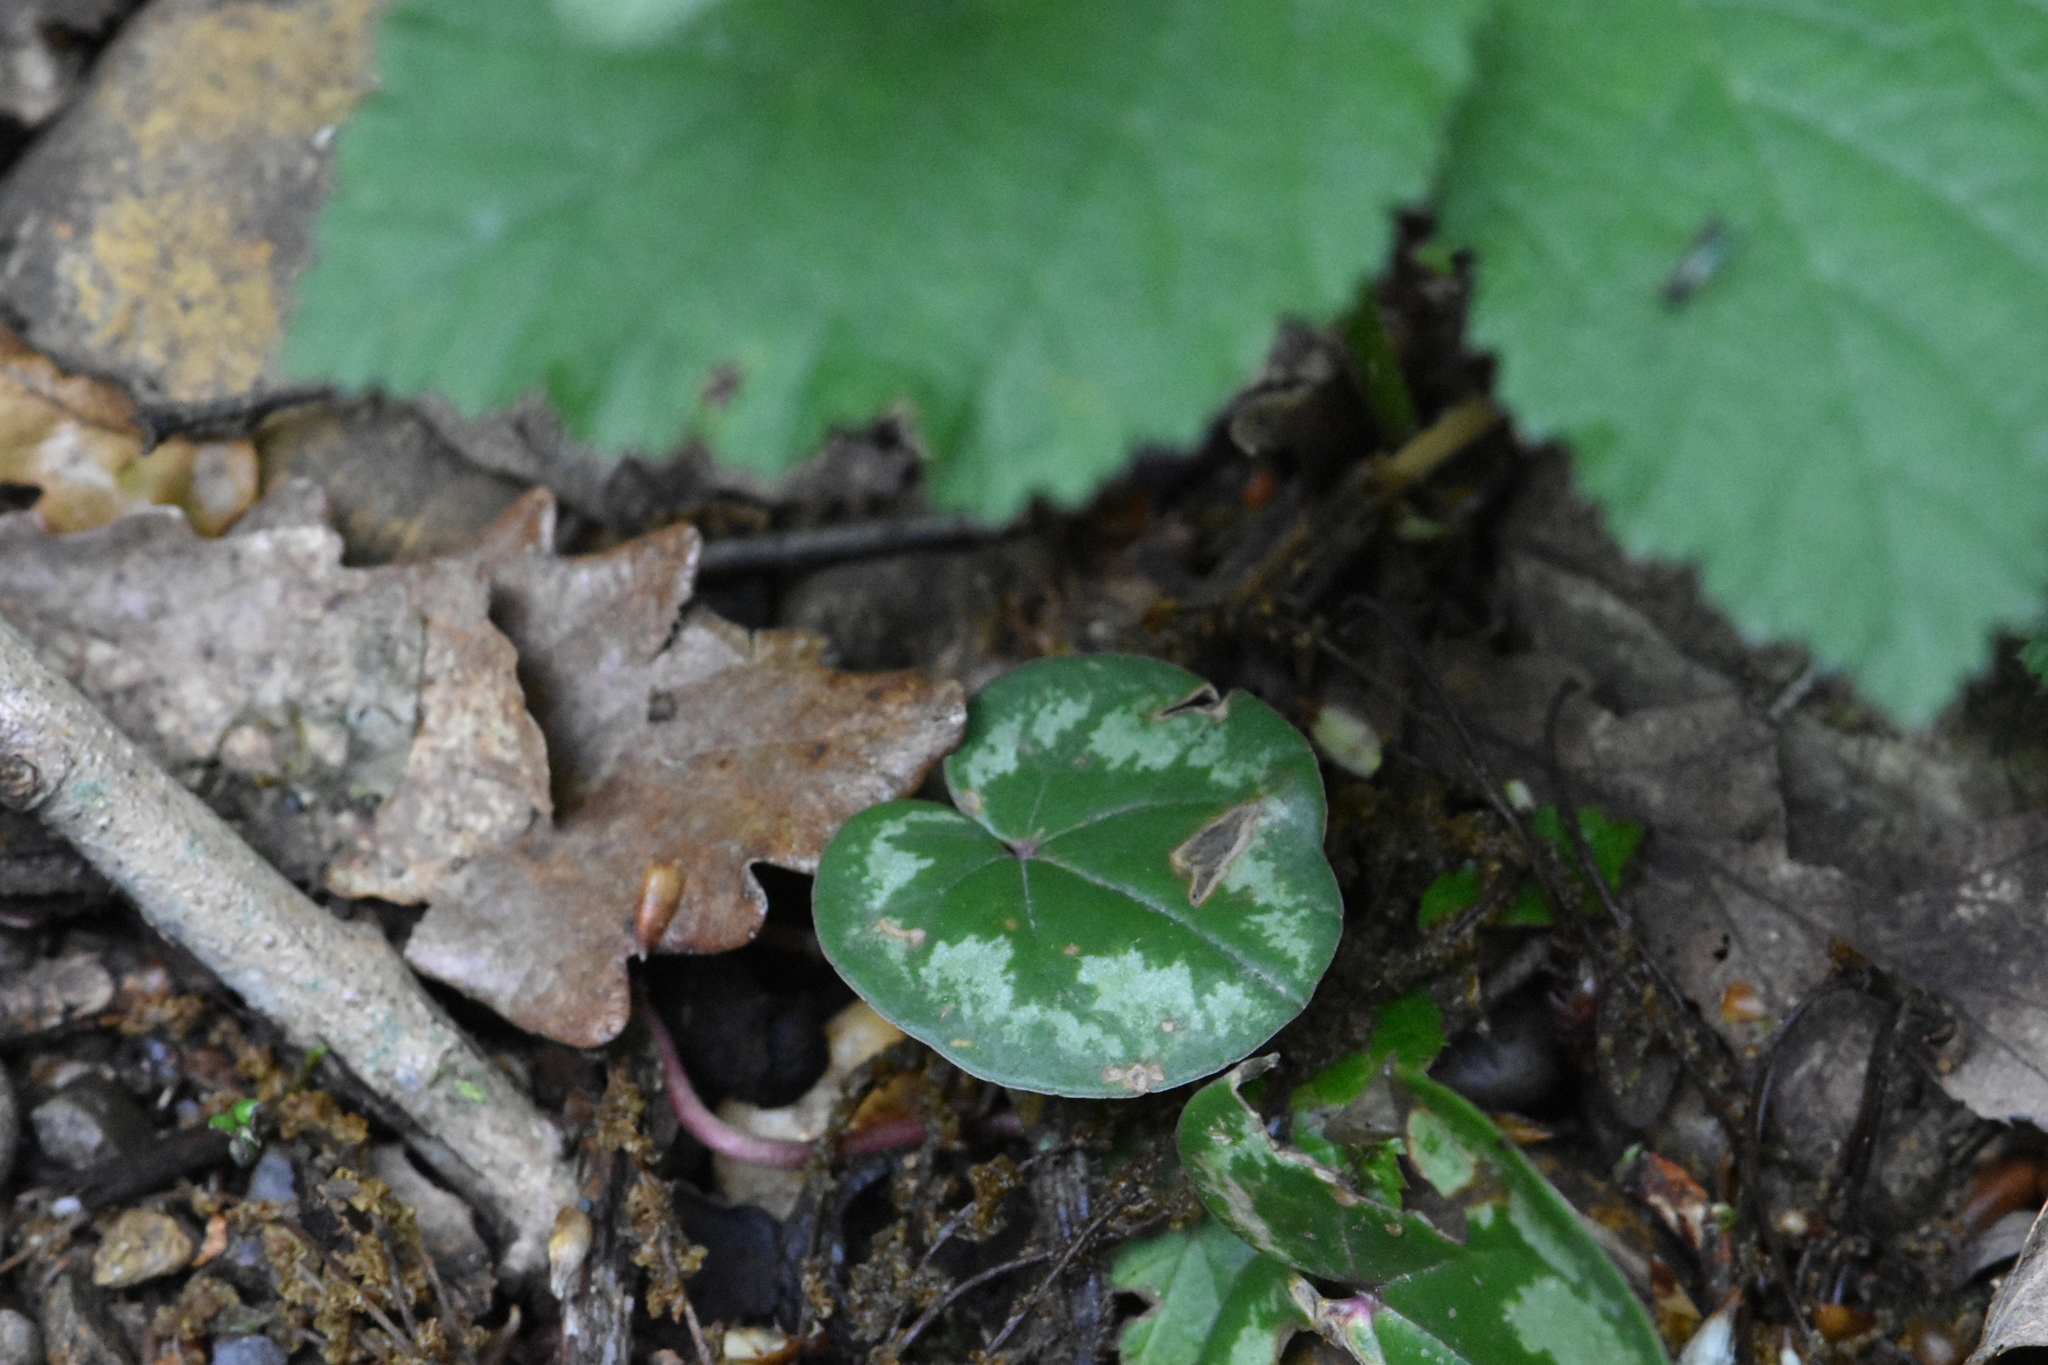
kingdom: Plantae
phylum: Tracheophyta
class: Magnoliopsida
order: Ericales
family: Primulaceae
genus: Cyclamen
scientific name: Cyclamen coum
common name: Eastern sowbread
